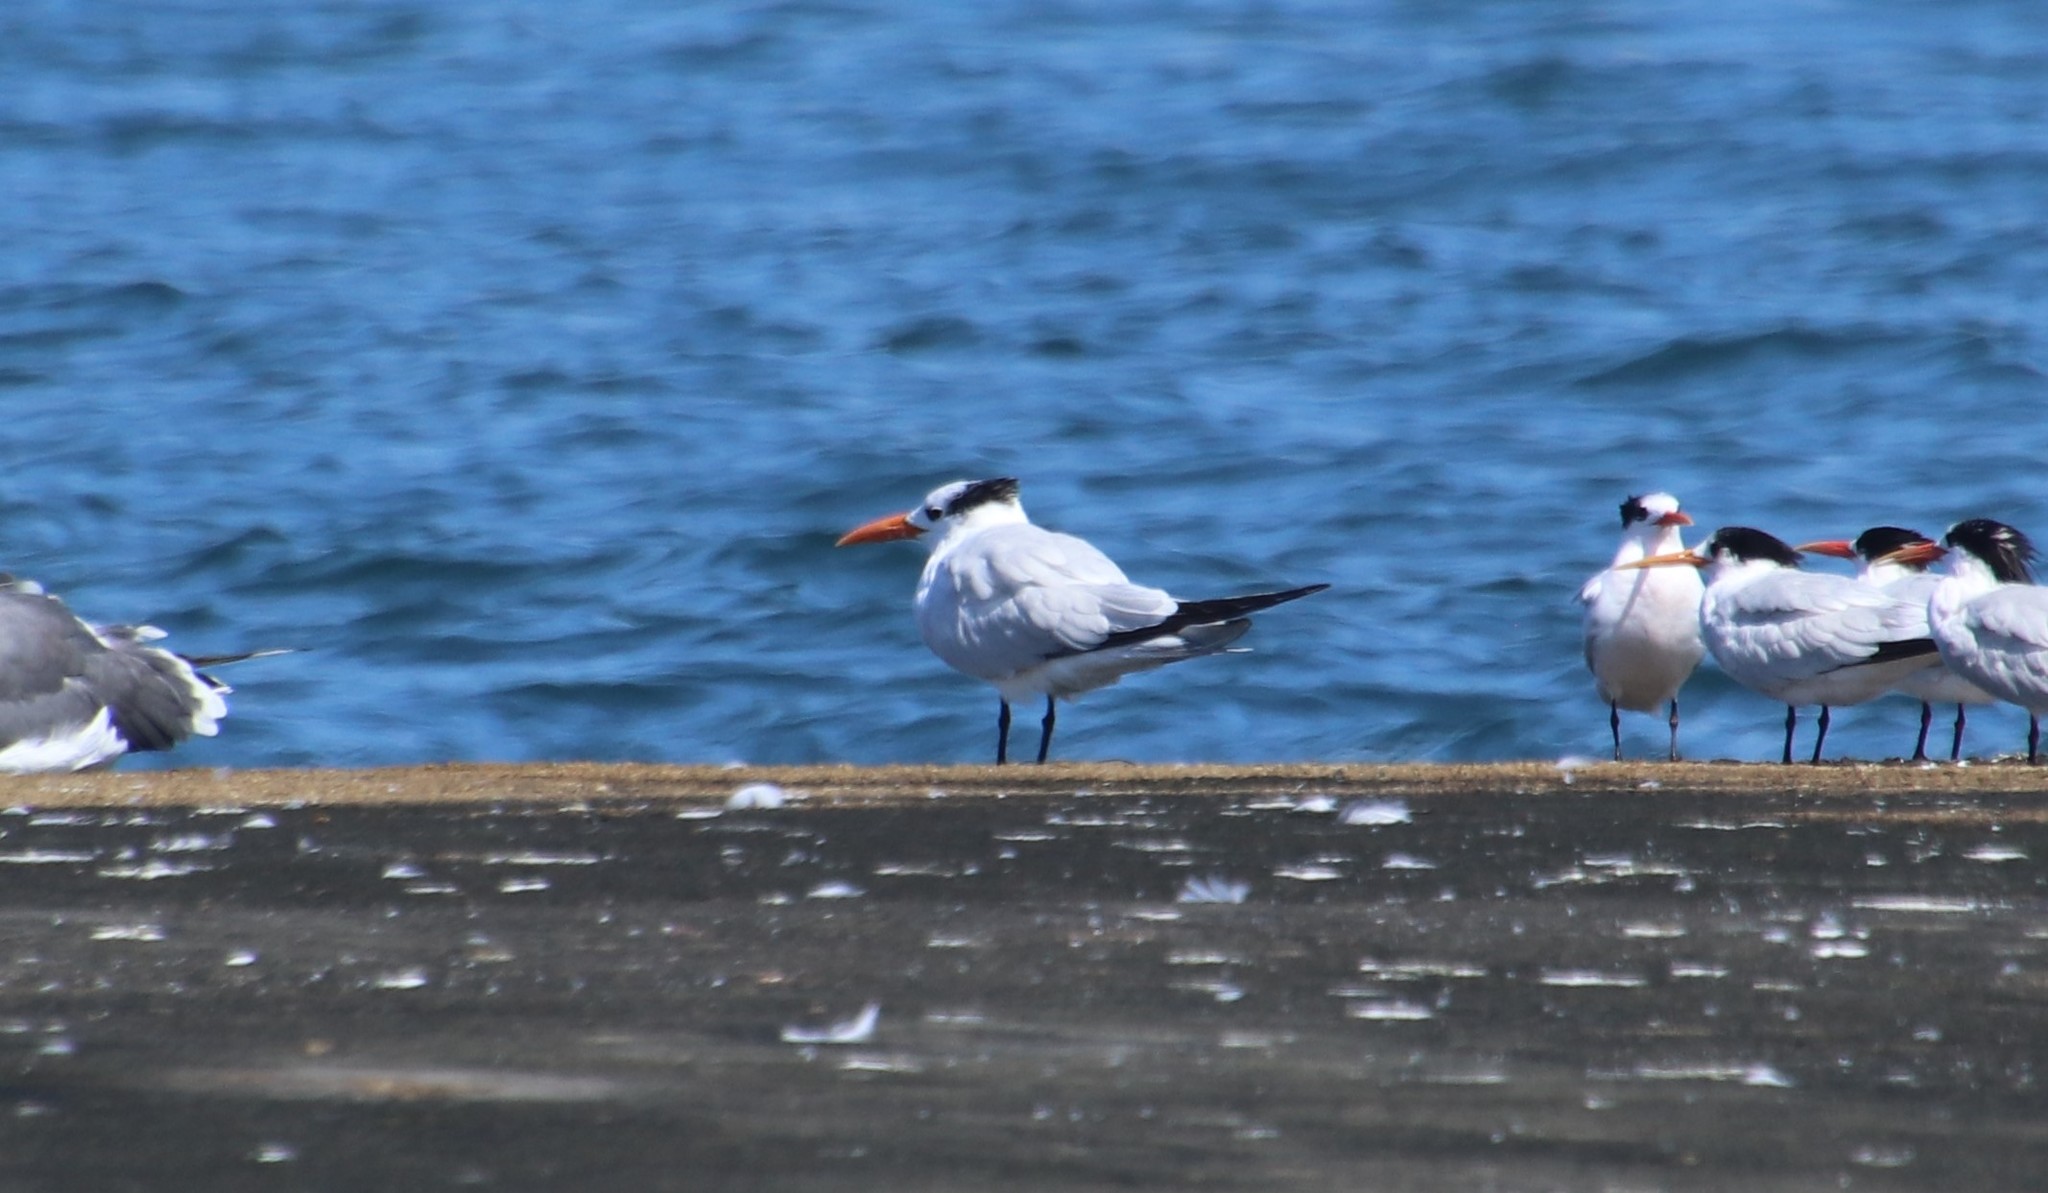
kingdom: Animalia
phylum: Chordata
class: Aves
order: Charadriiformes
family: Laridae
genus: Thalasseus
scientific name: Thalasseus maximus
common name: Royal tern
